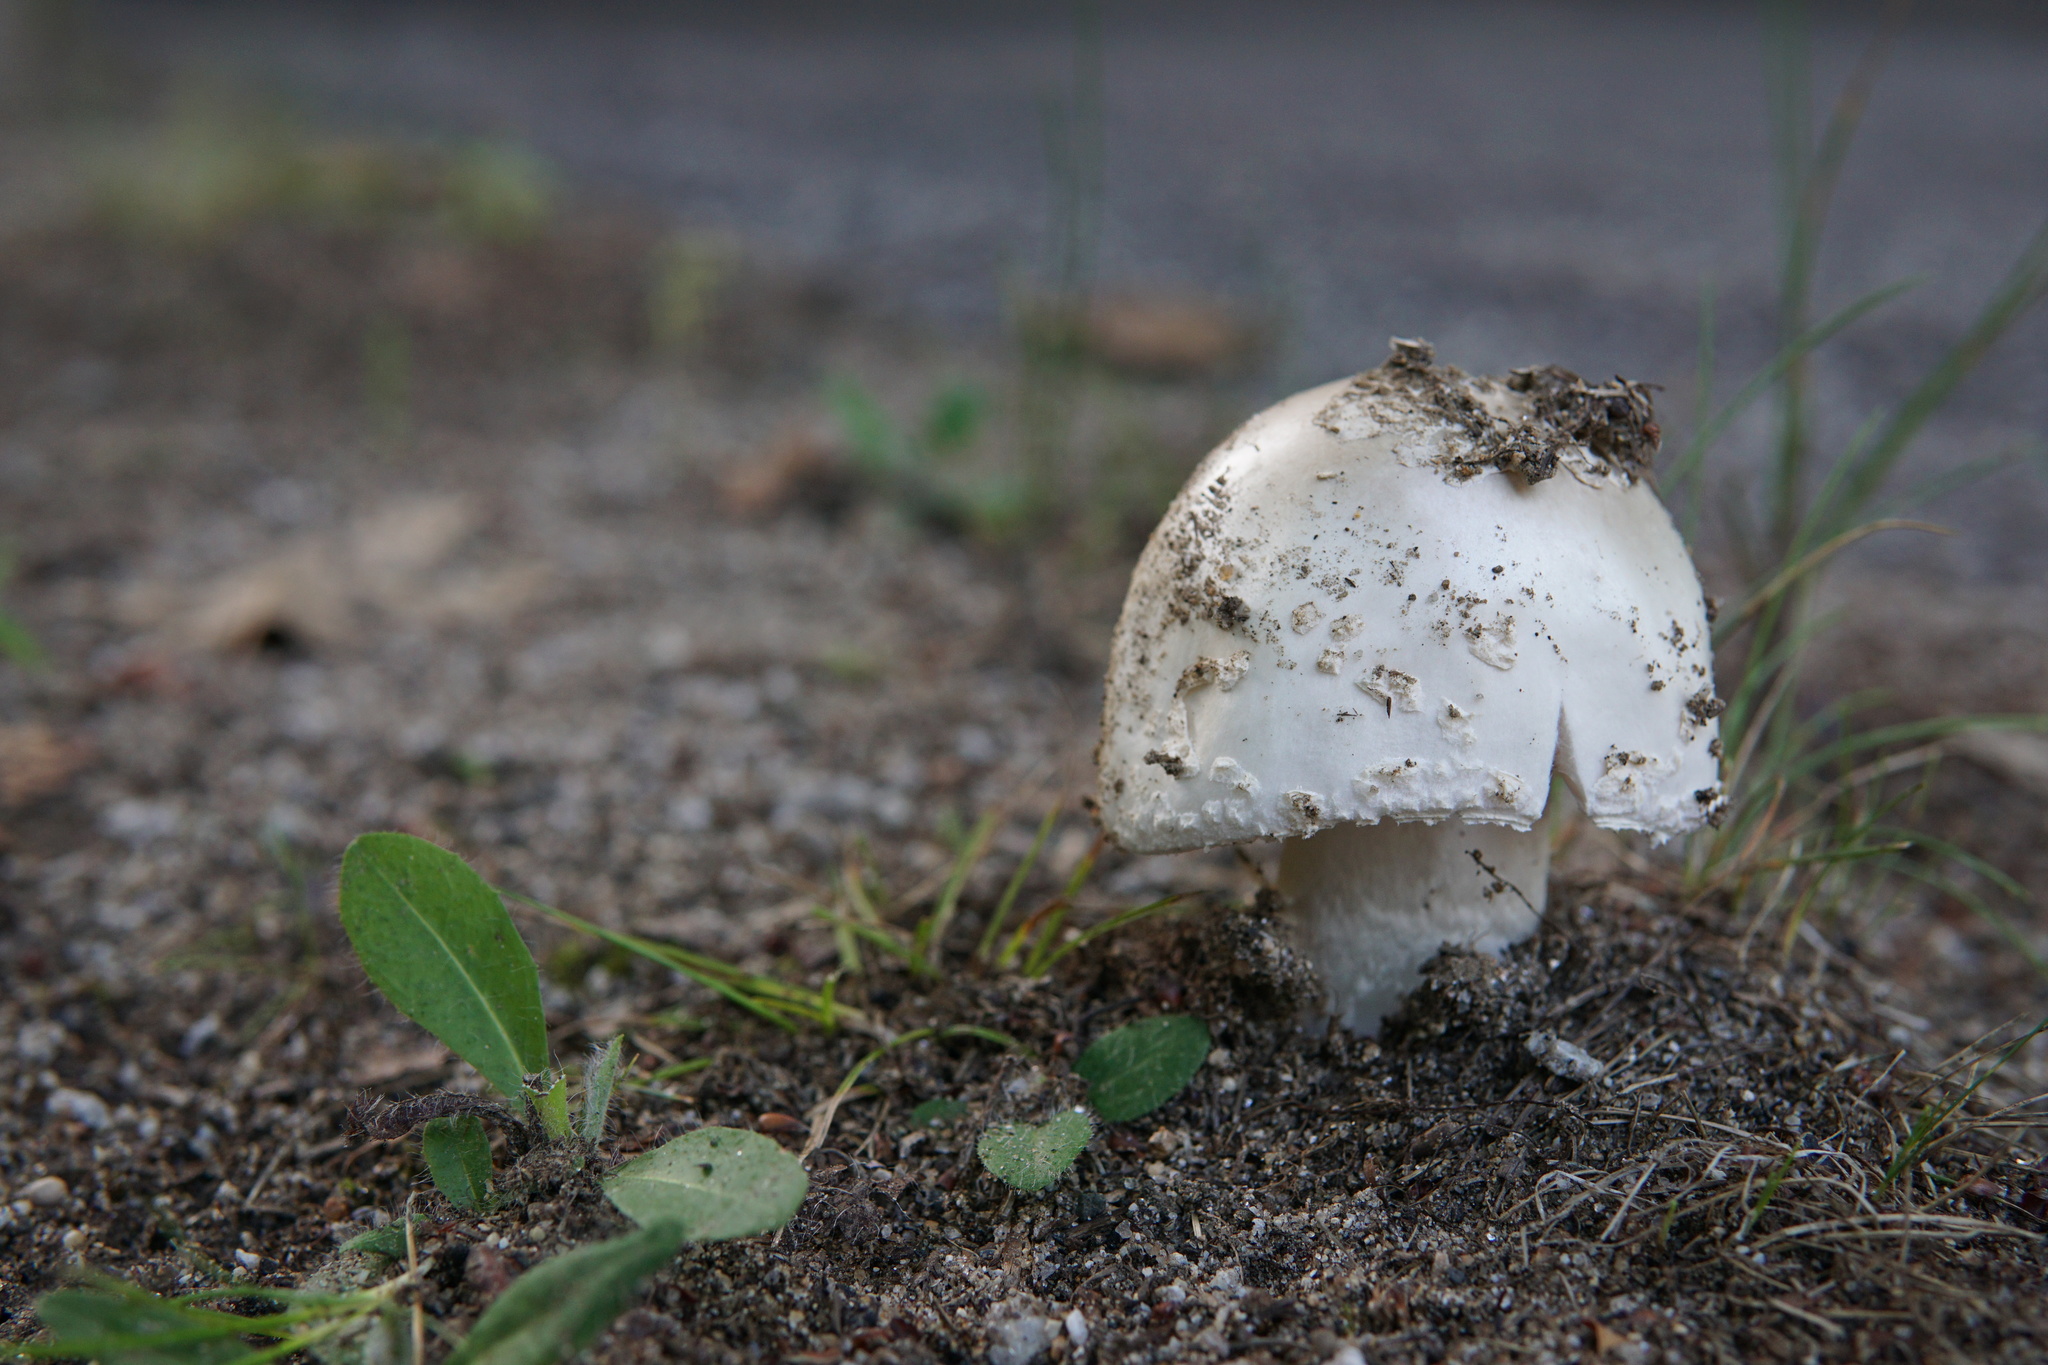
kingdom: Fungi
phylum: Basidiomycota
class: Agaricomycetes
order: Agaricales
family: Amanitaceae
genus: Amanita
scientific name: Amanita canescens
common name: Golden threads lepidella
